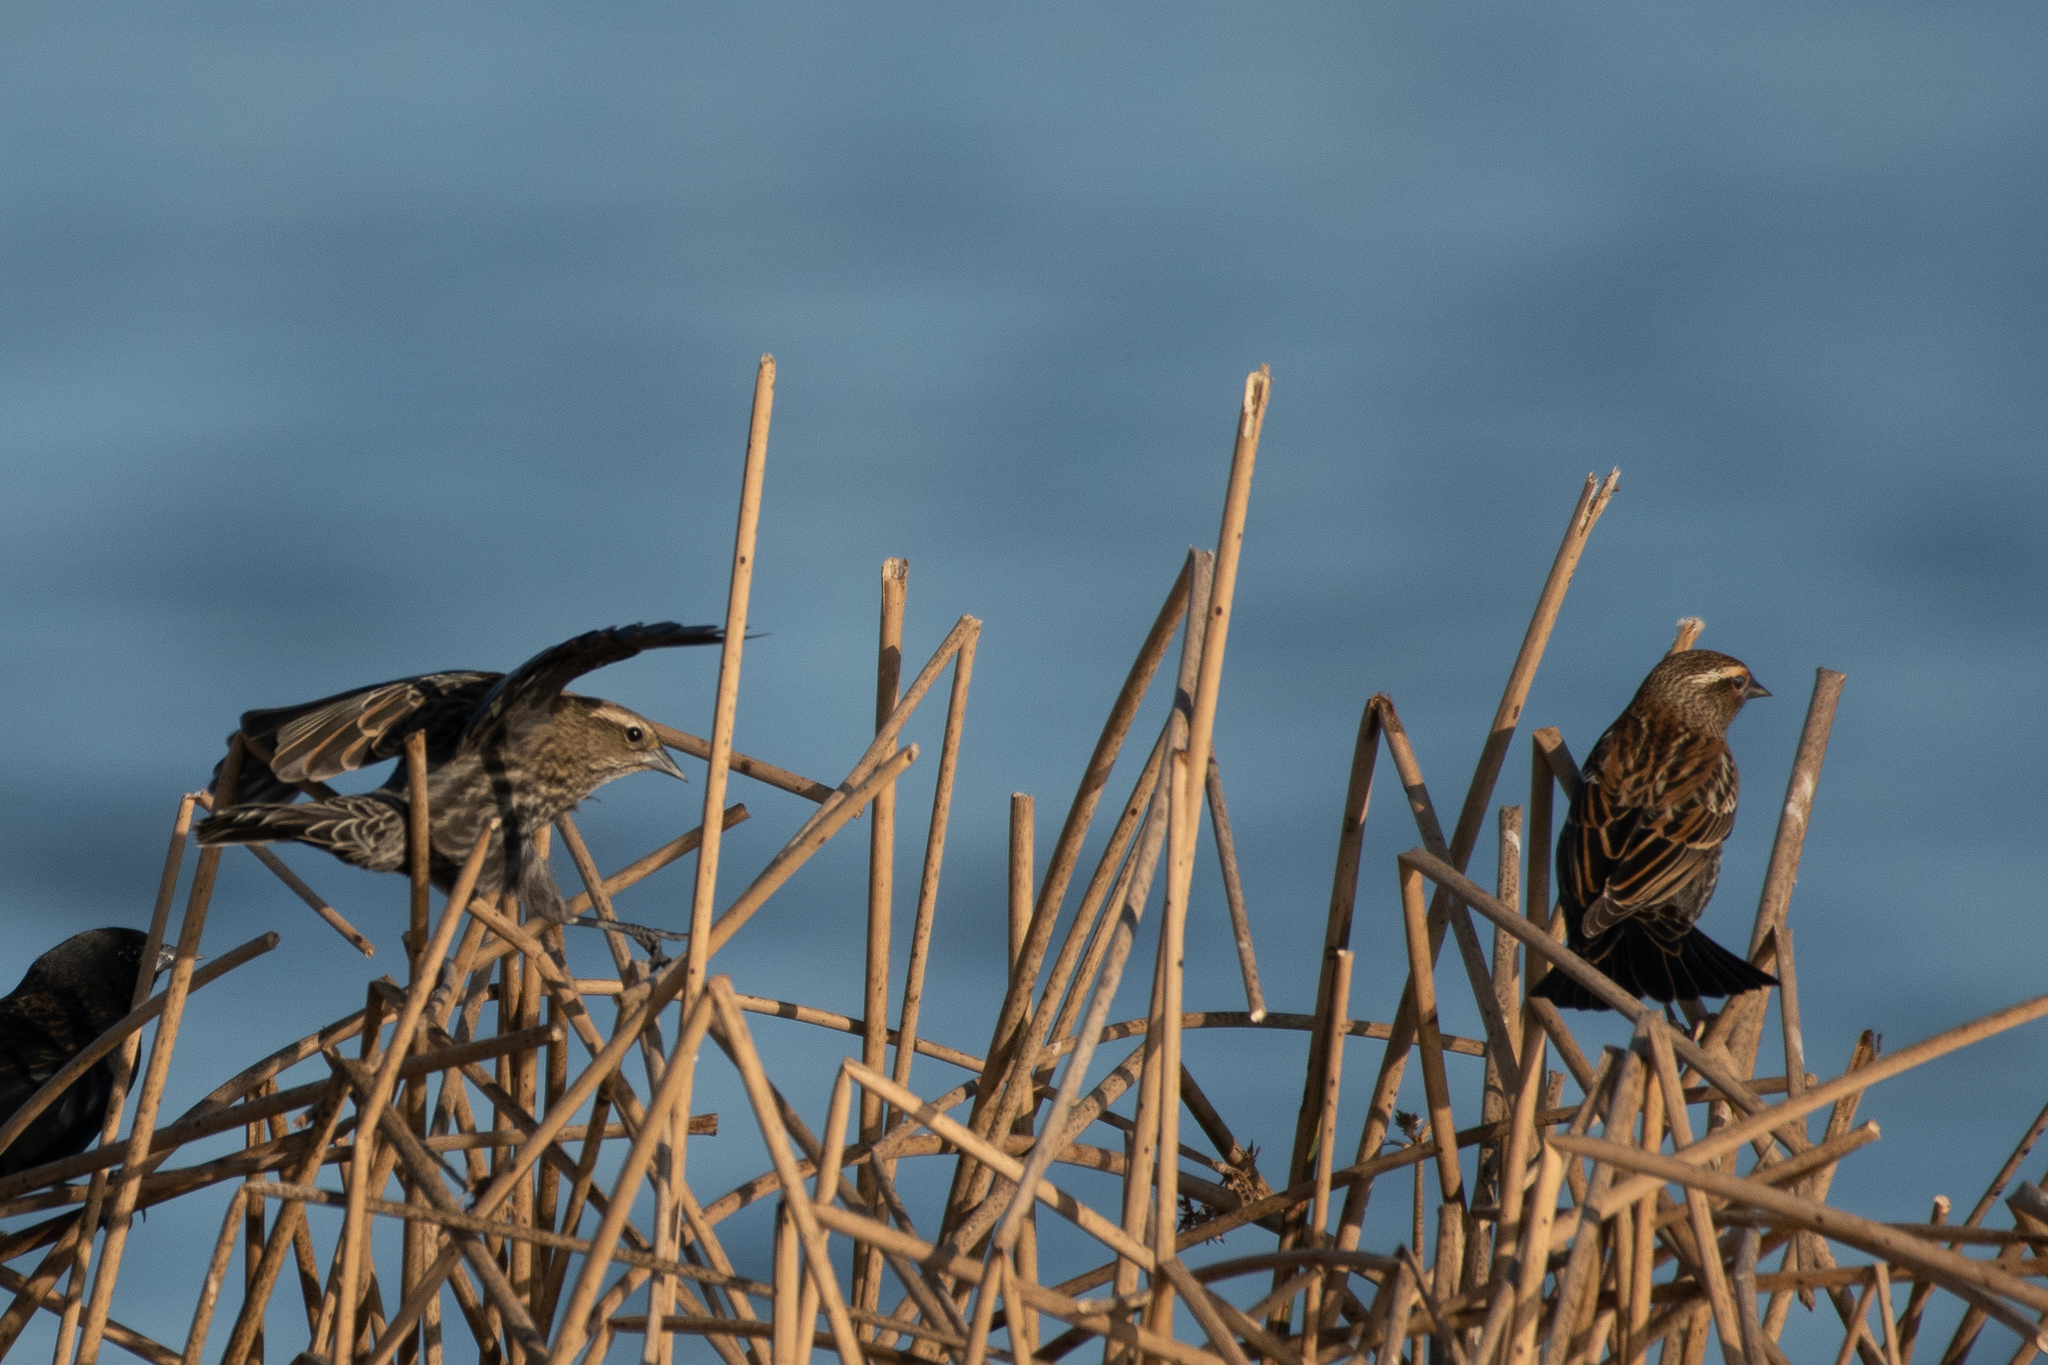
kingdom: Animalia
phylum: Chordata
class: Aves
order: Passeriformes
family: Icteridae
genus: Agelaius
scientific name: Agelaius phoeniceus
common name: Red-winged blackbird
